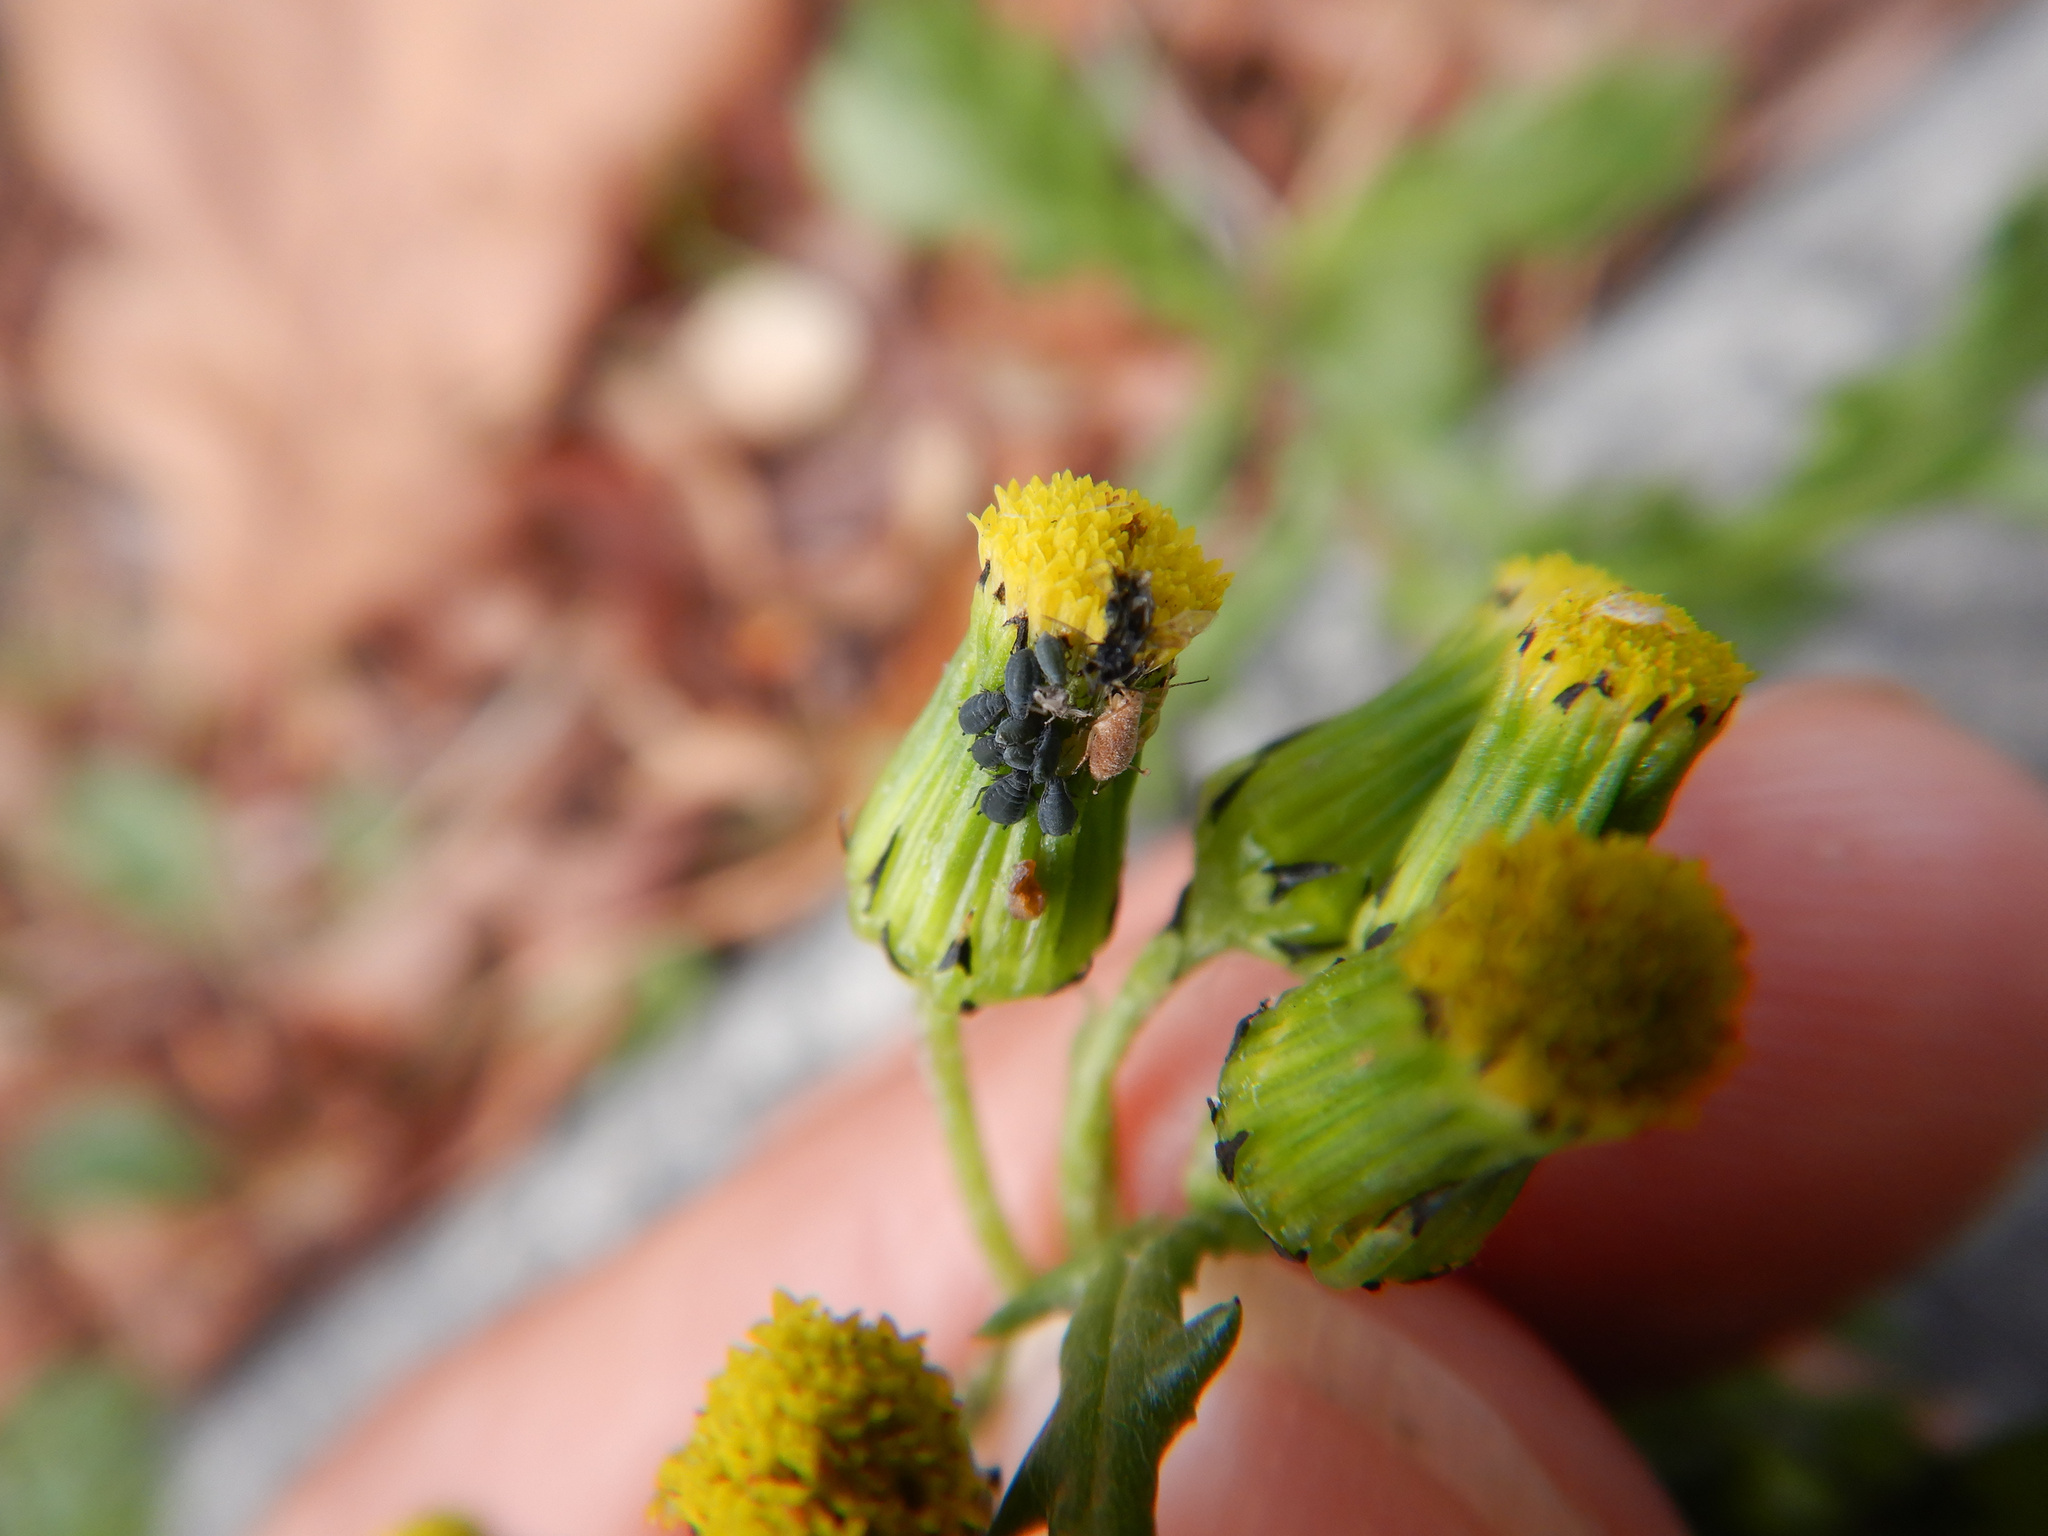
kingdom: Animalia
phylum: Arthropoda
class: Insecta
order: Hemiptera
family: Aphididae
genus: Aphis
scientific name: Aphis lugentis
